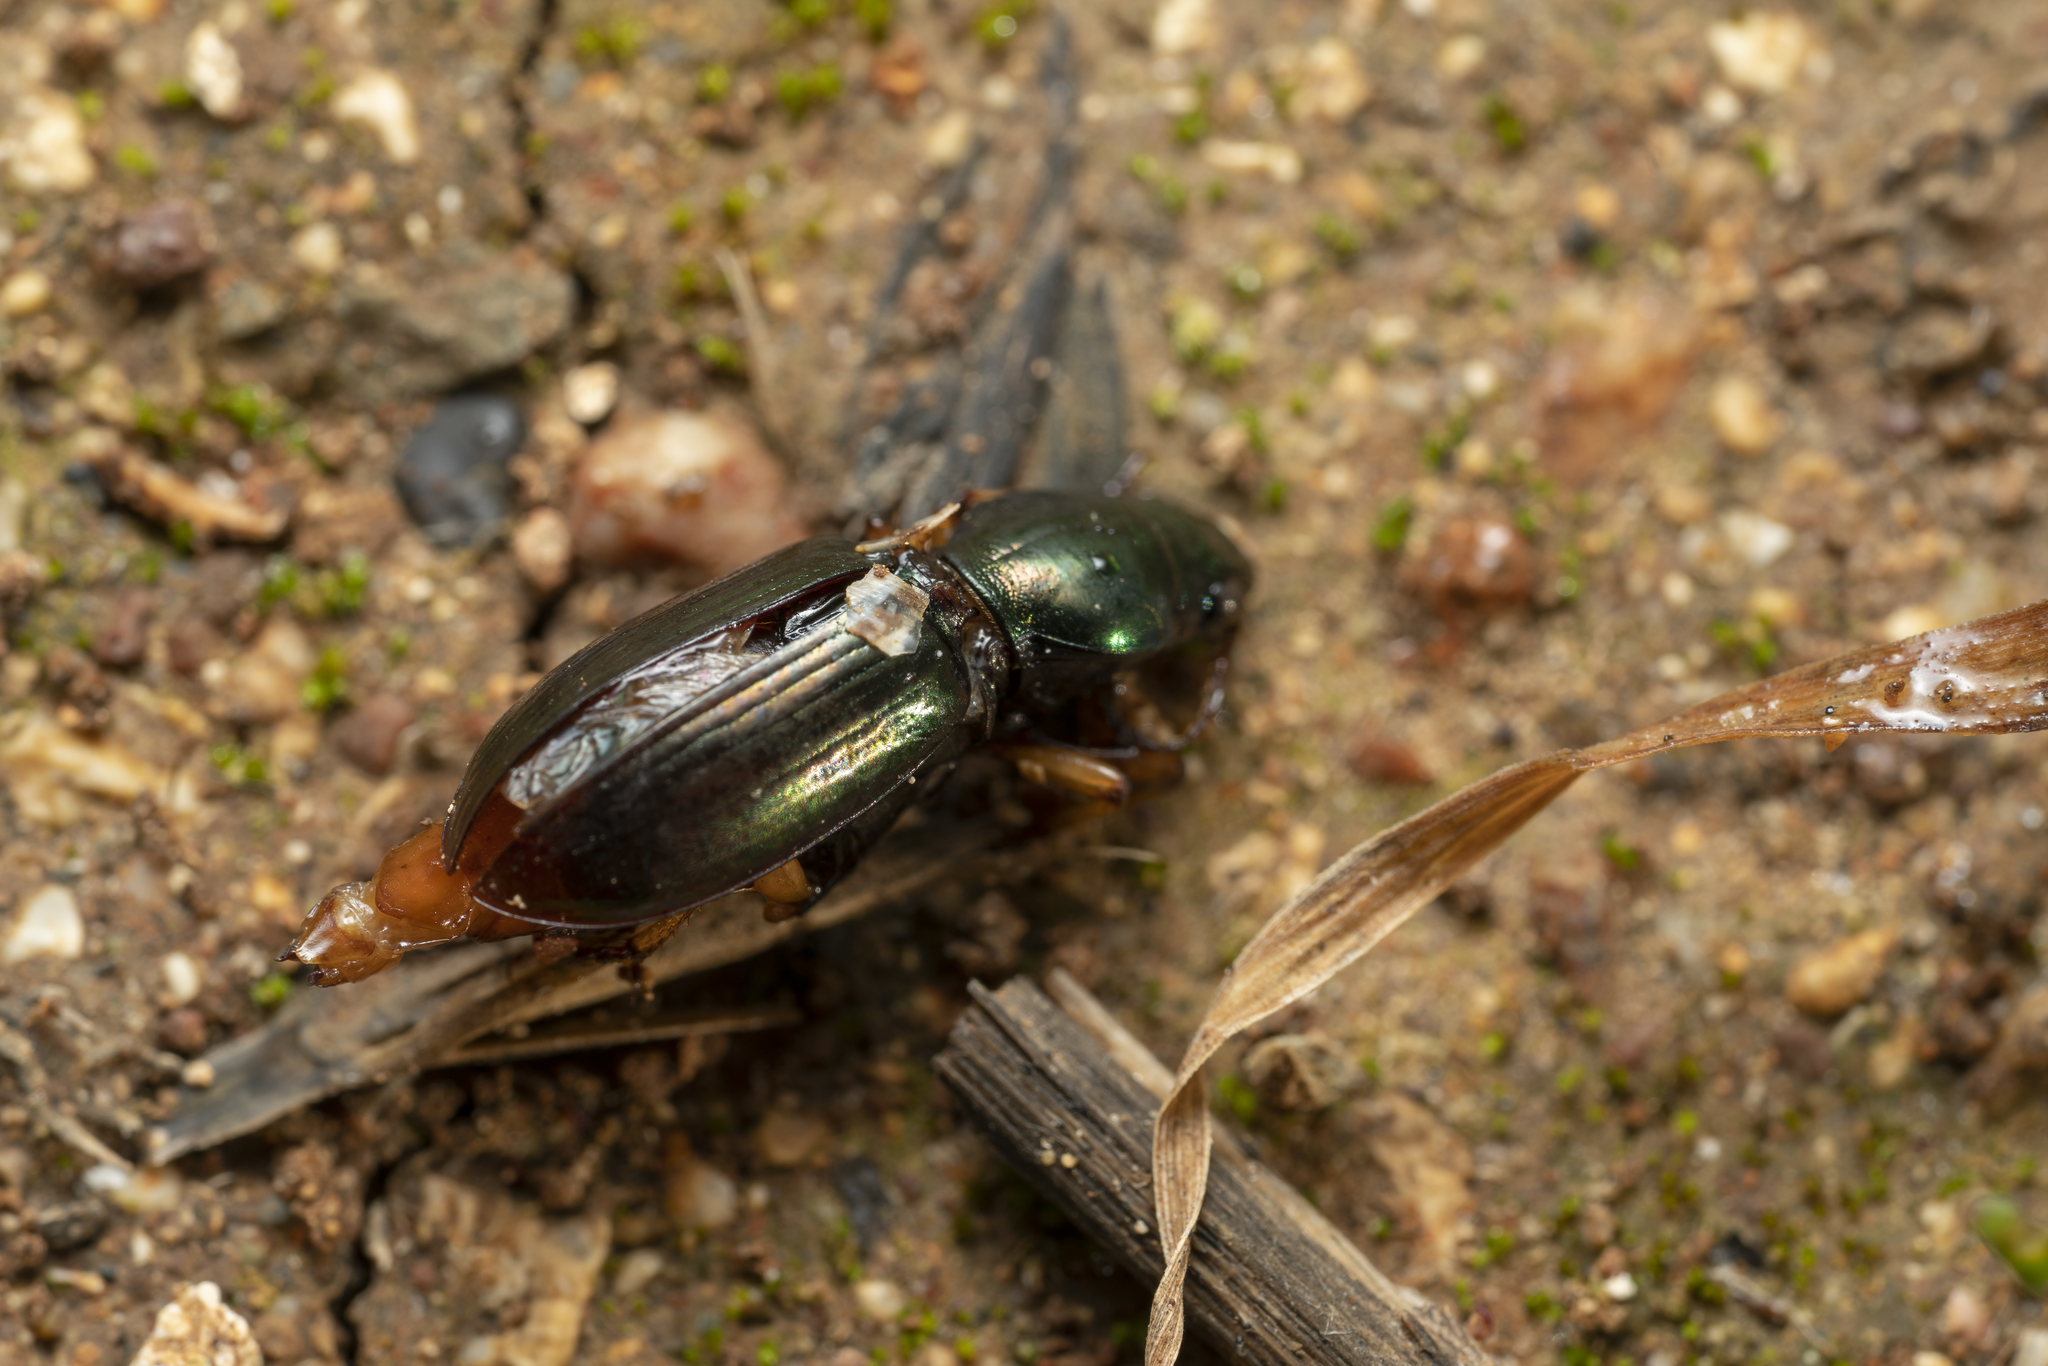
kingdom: Animalia
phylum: Arthropoda
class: Insecta
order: Coleoptera
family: Carabidae
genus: Broscus
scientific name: Broscus nobilis
